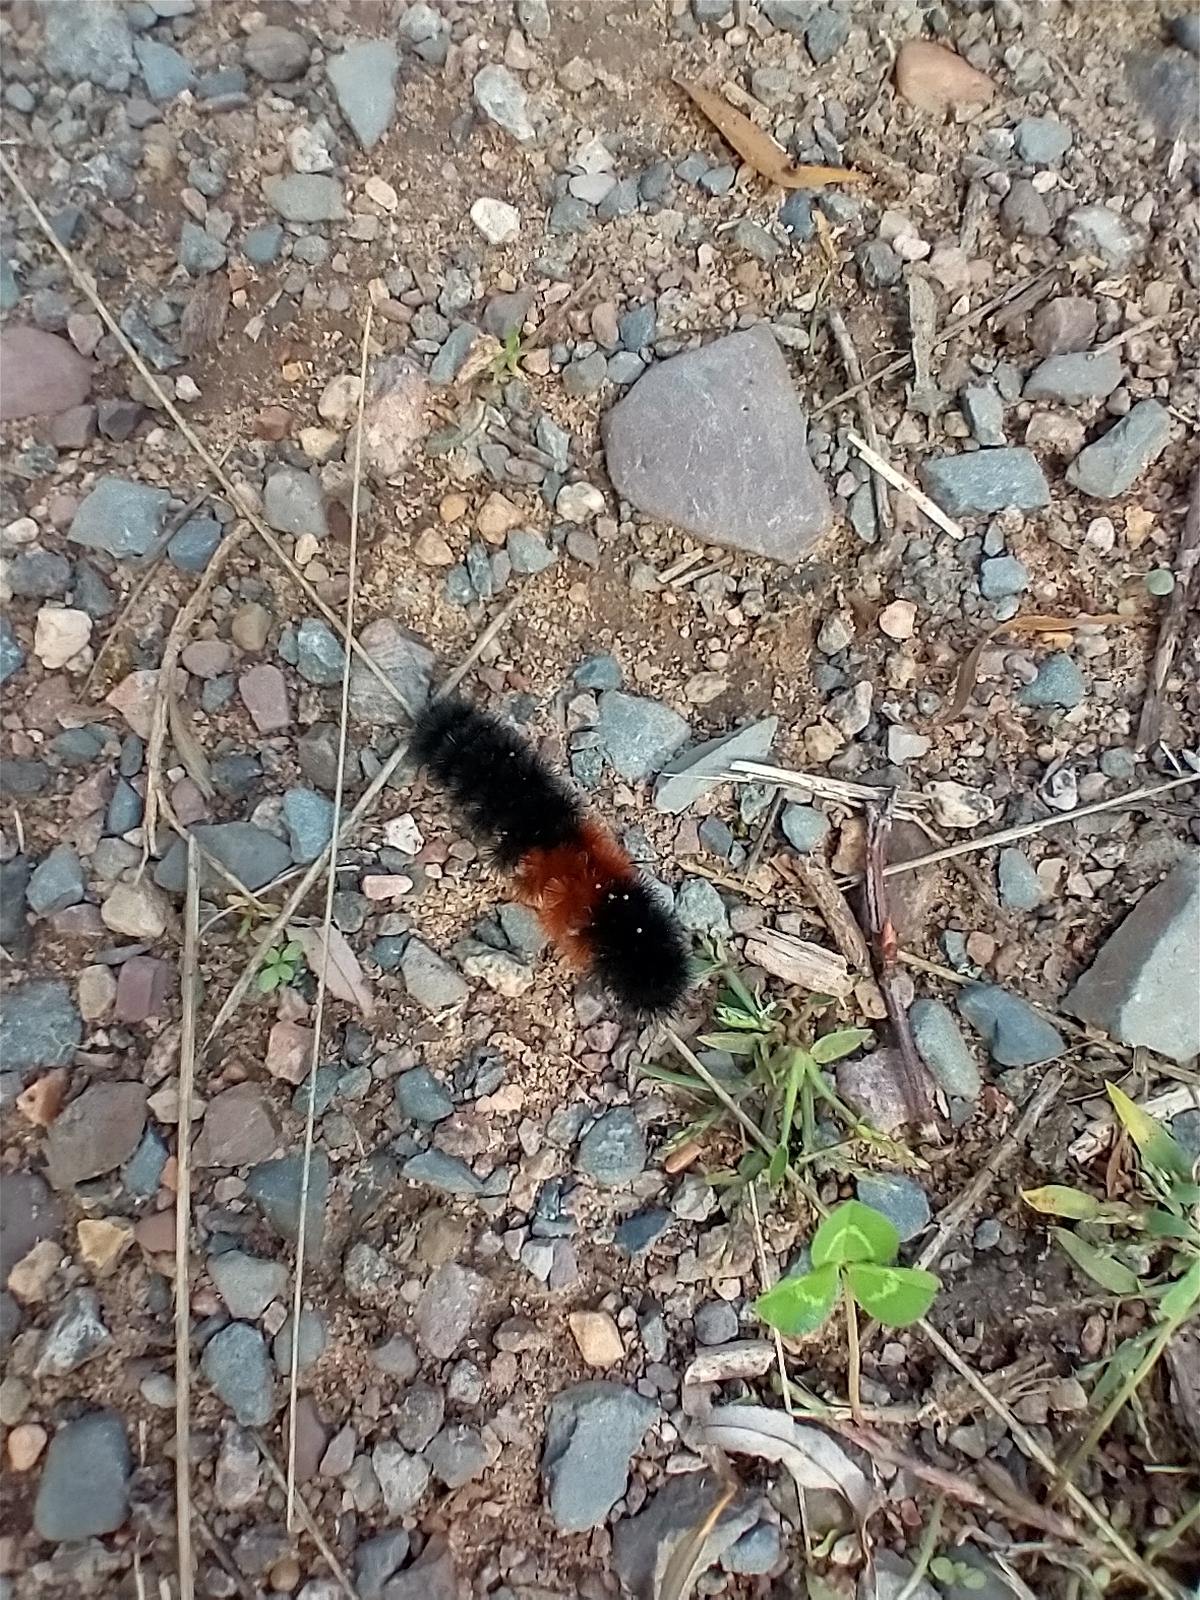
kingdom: Animalia
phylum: Arthropoda
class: Insecta
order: Lepidoptera
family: Erebidae
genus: Pyrrharctia
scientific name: Pyrrharctia isabella
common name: Isabella tiger moth
